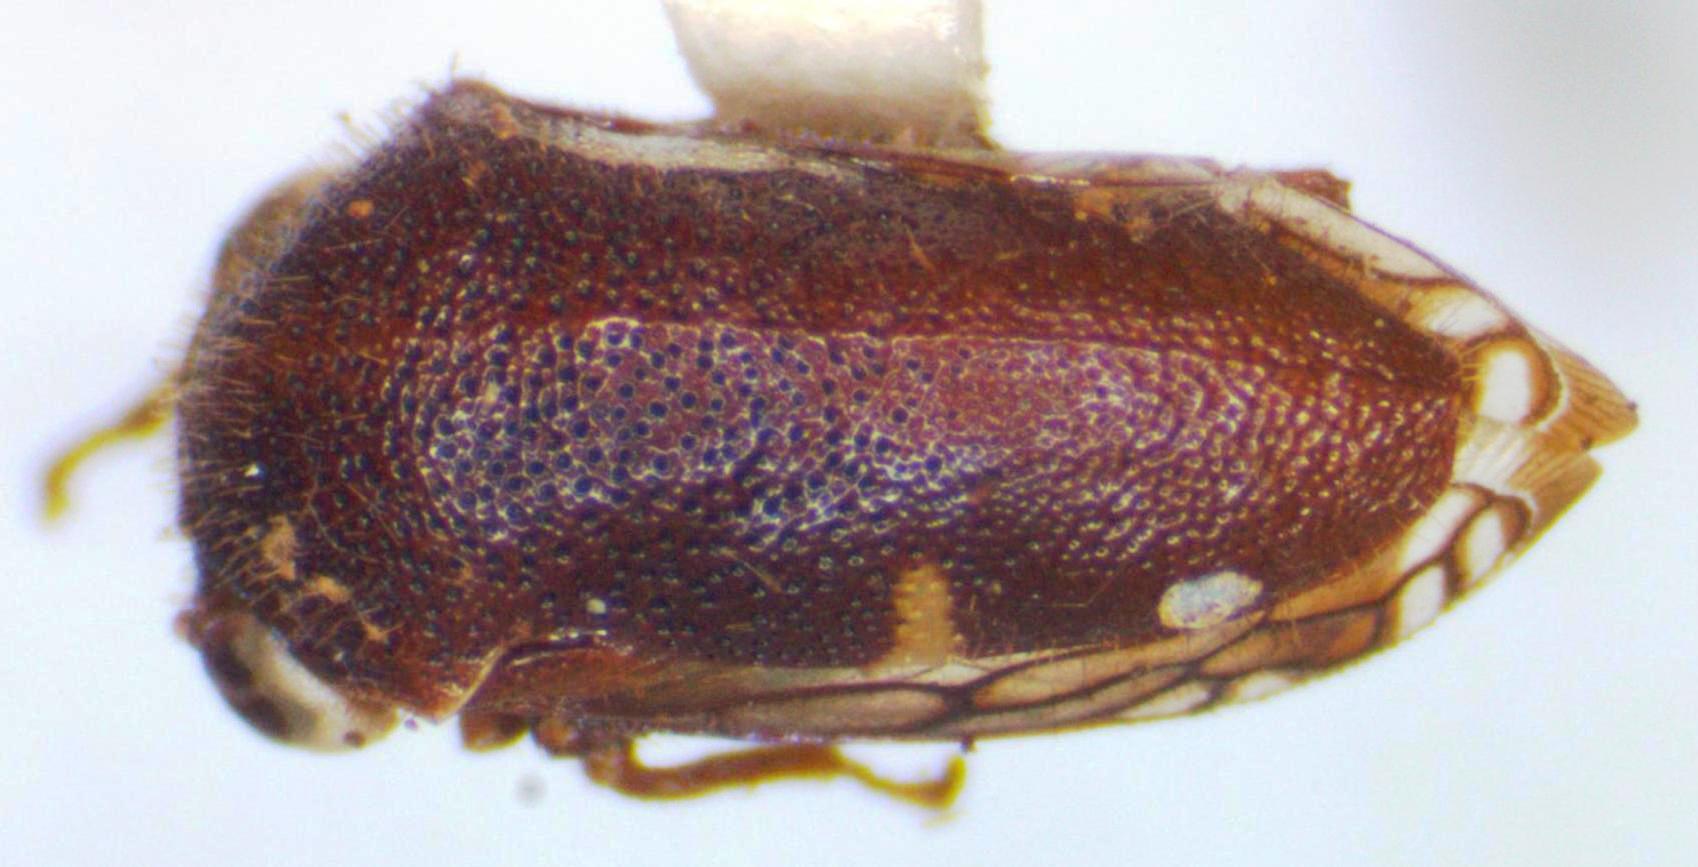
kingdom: Animalia
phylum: Arthropoda
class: Insecta
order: Hemiptera
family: Membracidae
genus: Harmonides
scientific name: Harmonides reticulata
